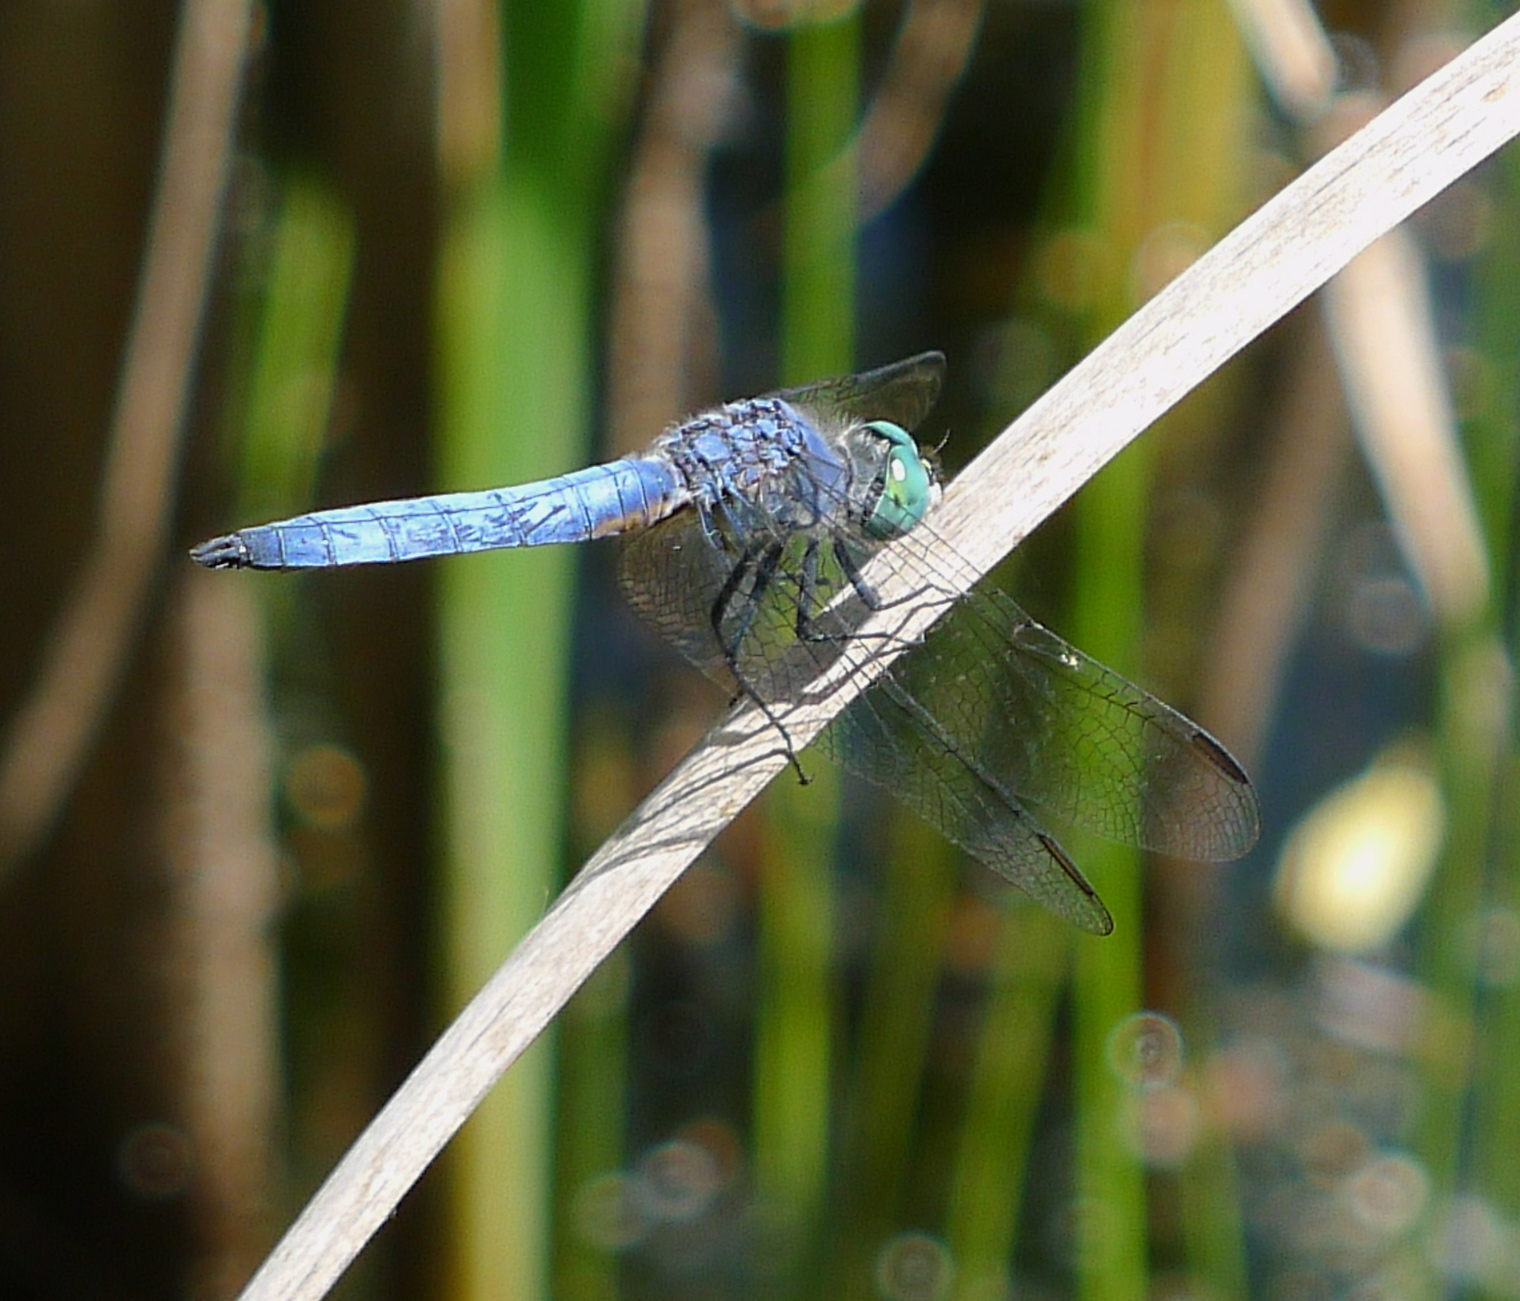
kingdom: Animalia
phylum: Arthropoda
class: Insecta
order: Odonata
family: Libellulidae
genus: Pachydiplax
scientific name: Pachydiplax longipennis
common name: Blue dasher
